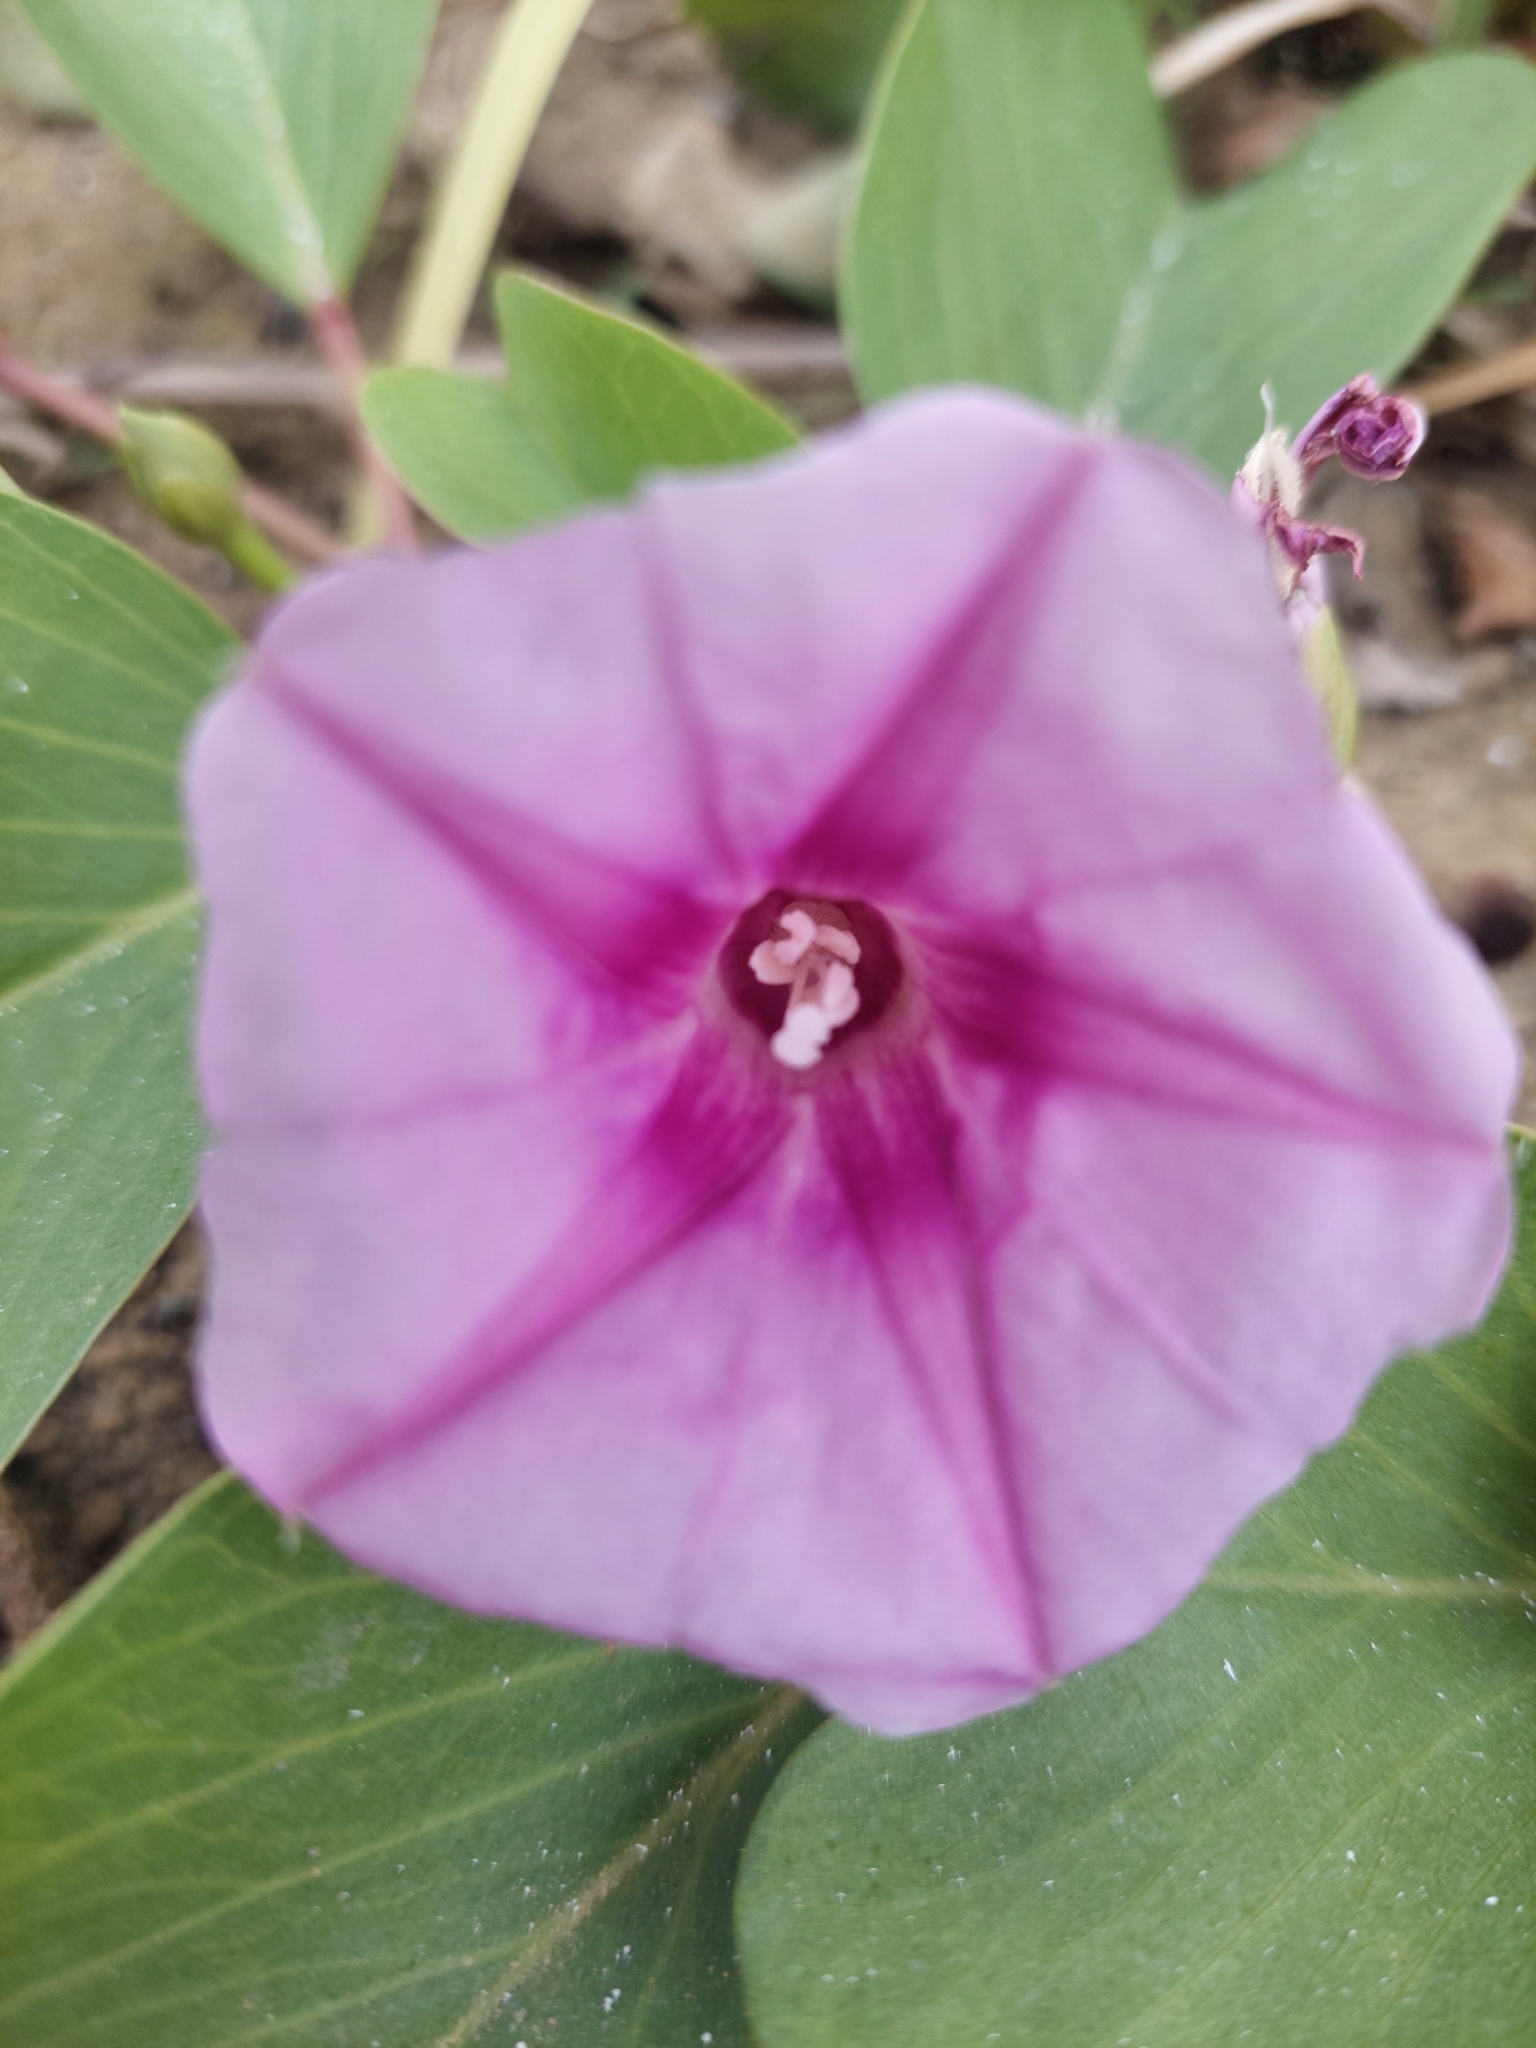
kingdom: Plantae
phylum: Tracheophyta
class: Magnoliopsida
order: Solanales
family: Convolvulaceae
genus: Ipomoea
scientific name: Ipomoea pes-caprae
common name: Beach morning glory
